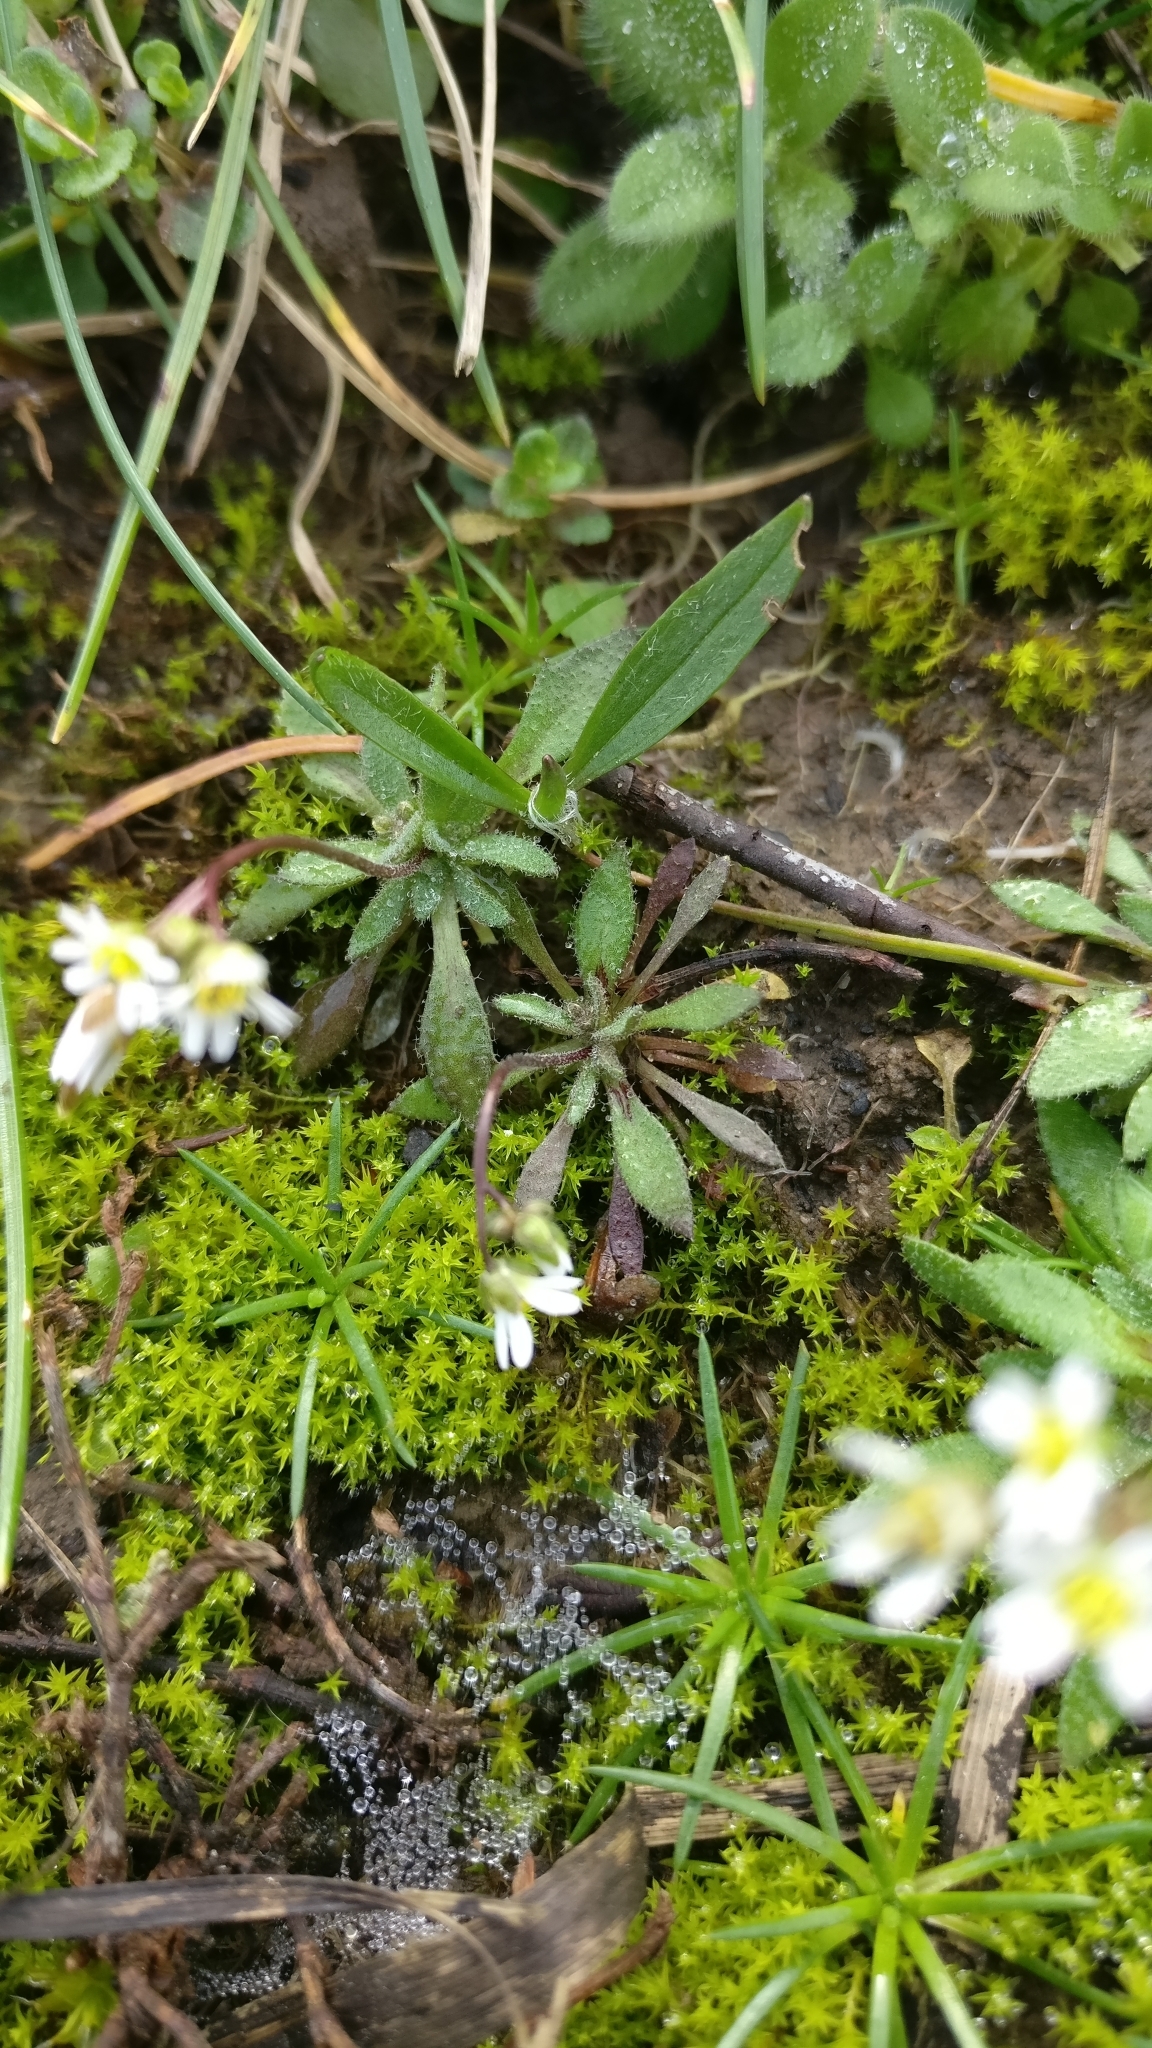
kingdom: Plantae
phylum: Tracheophyta
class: Magnoliopsida
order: Brassicales
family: Brassicaceae
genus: Draba
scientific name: Draba verna
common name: Spring draba
